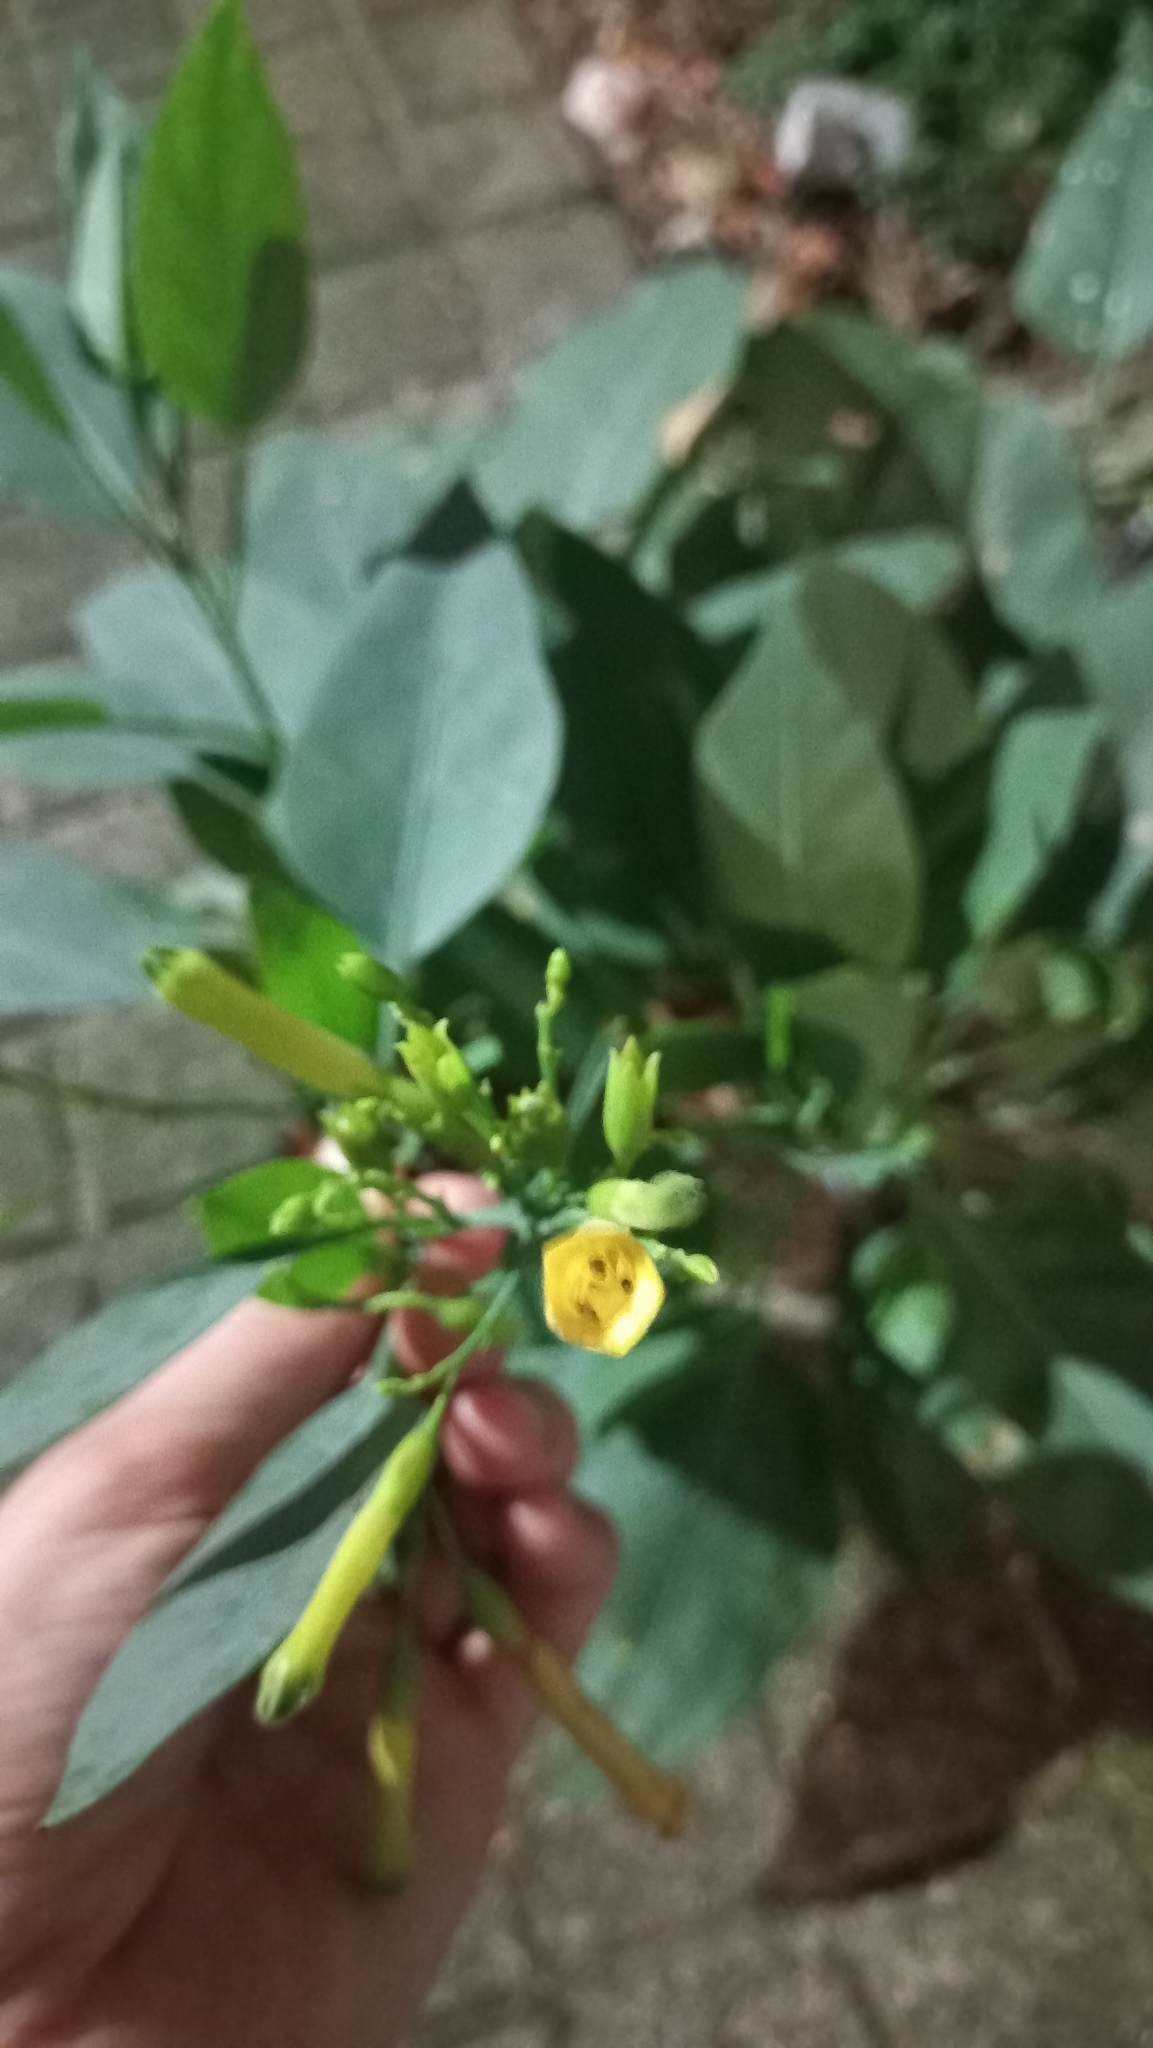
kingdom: Plantae
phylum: Tracheophyta
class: Magnoliopsida
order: Solanales
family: Solanaceae
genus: Nicotiana
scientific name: Nicotiana glauca
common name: Tree tobacco
